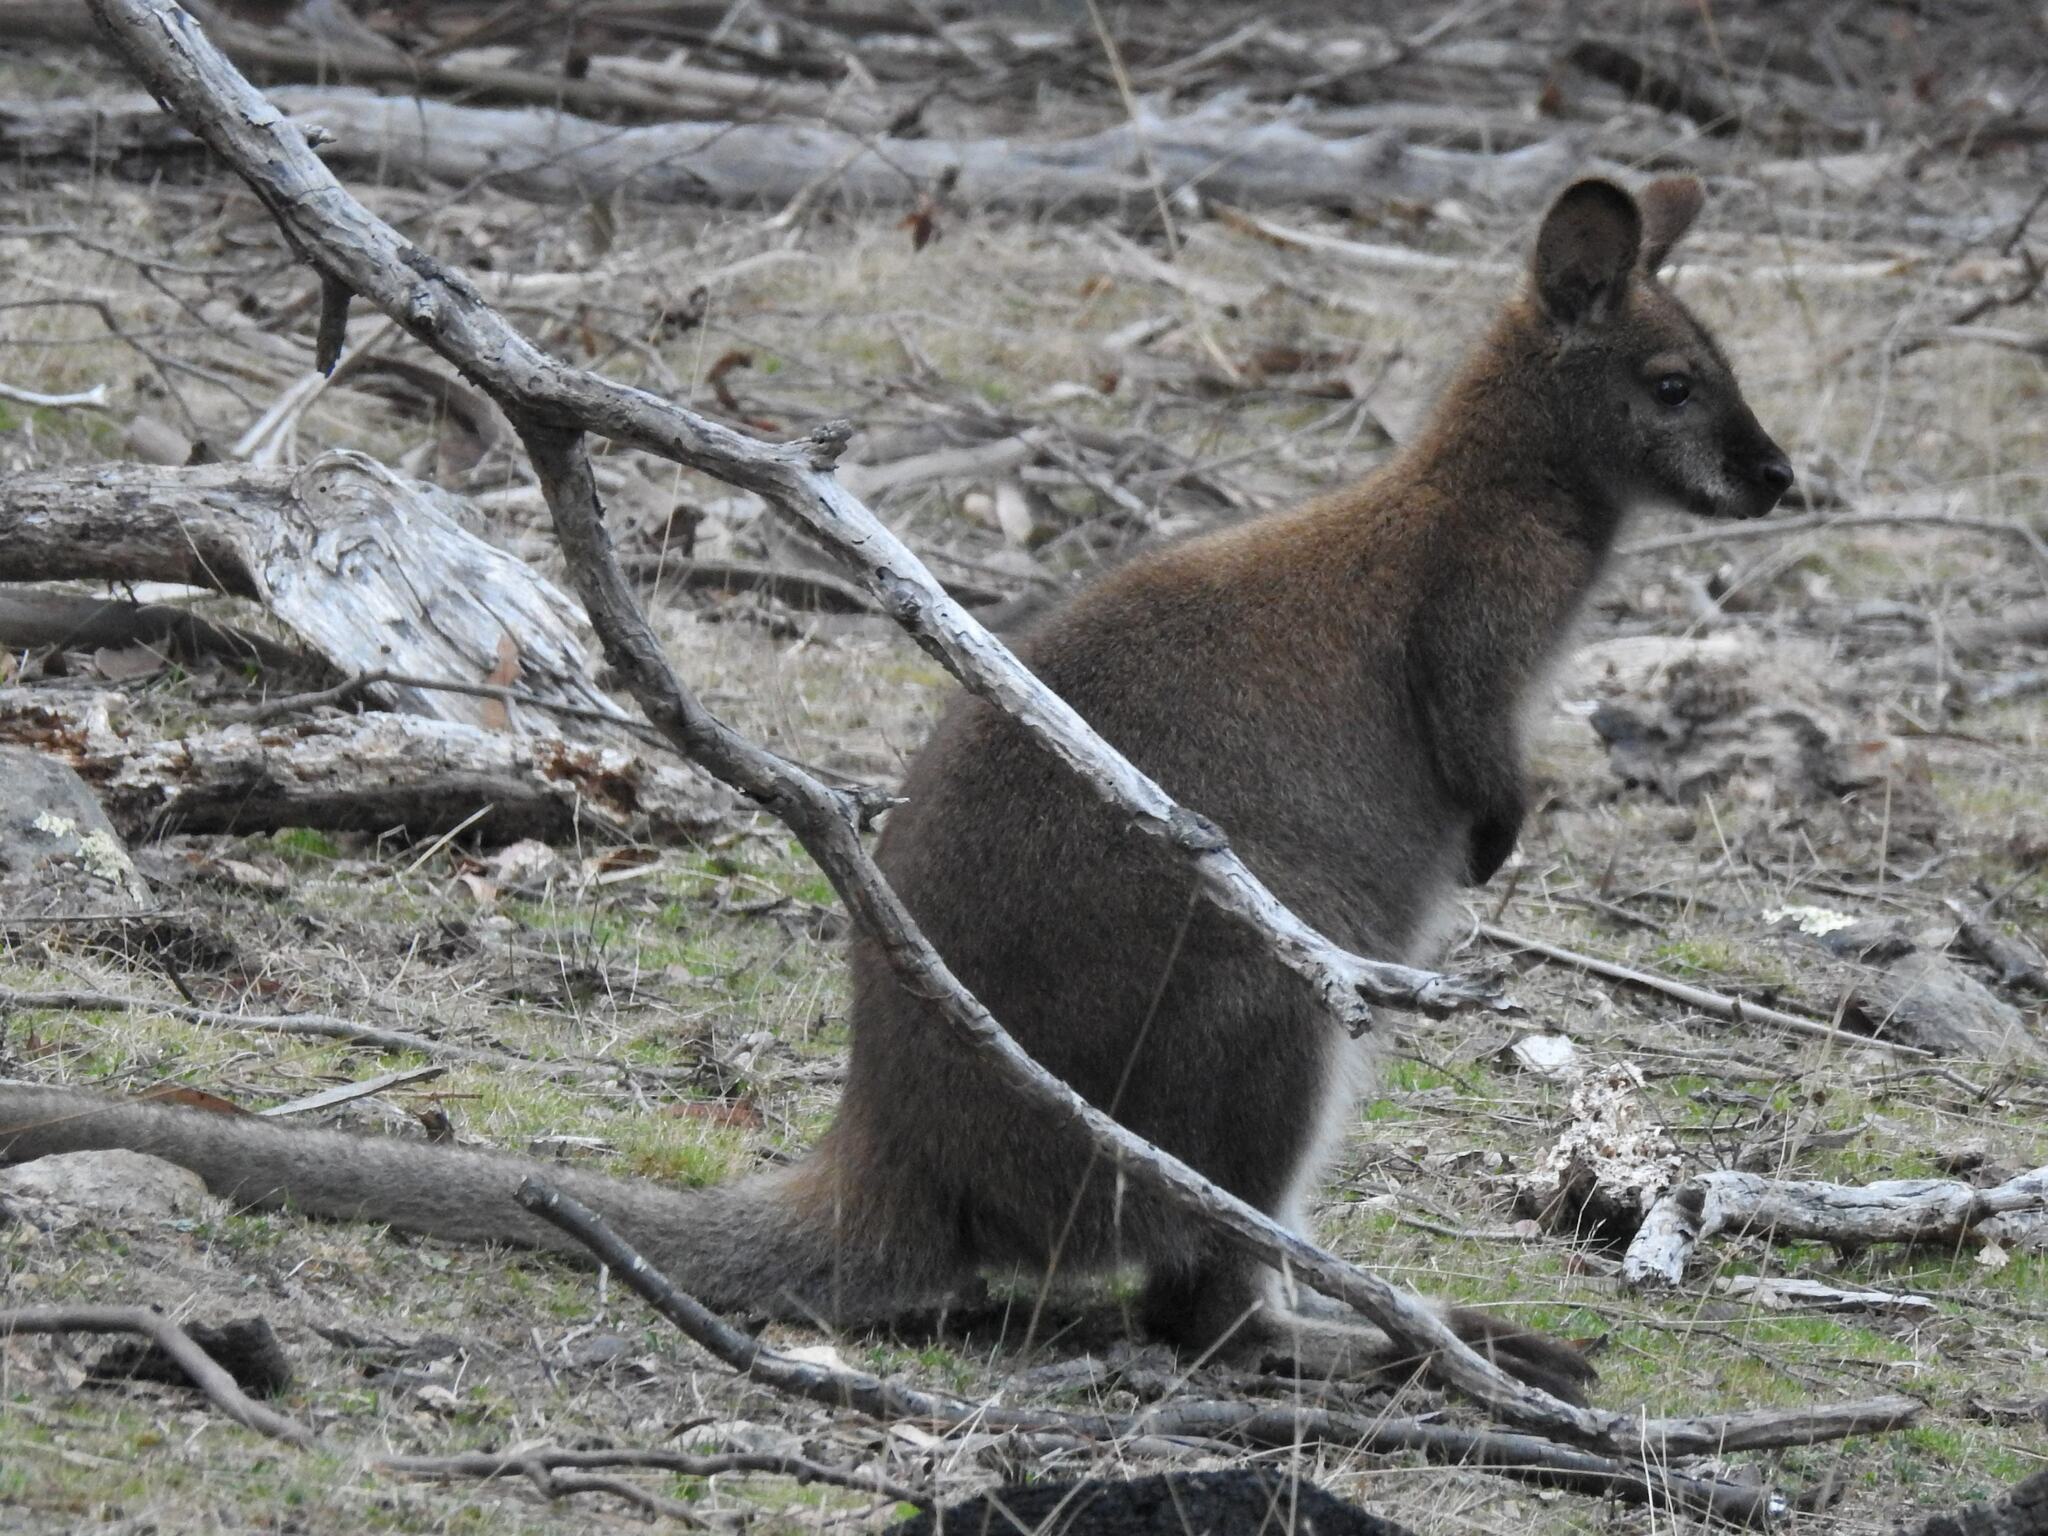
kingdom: Animalia
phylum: Chordata
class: Mammalia
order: Diprotodontia
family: Macropodidae
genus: Notamacropus
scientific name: Notamacropus rufogriseus
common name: Red-necked wallaby
